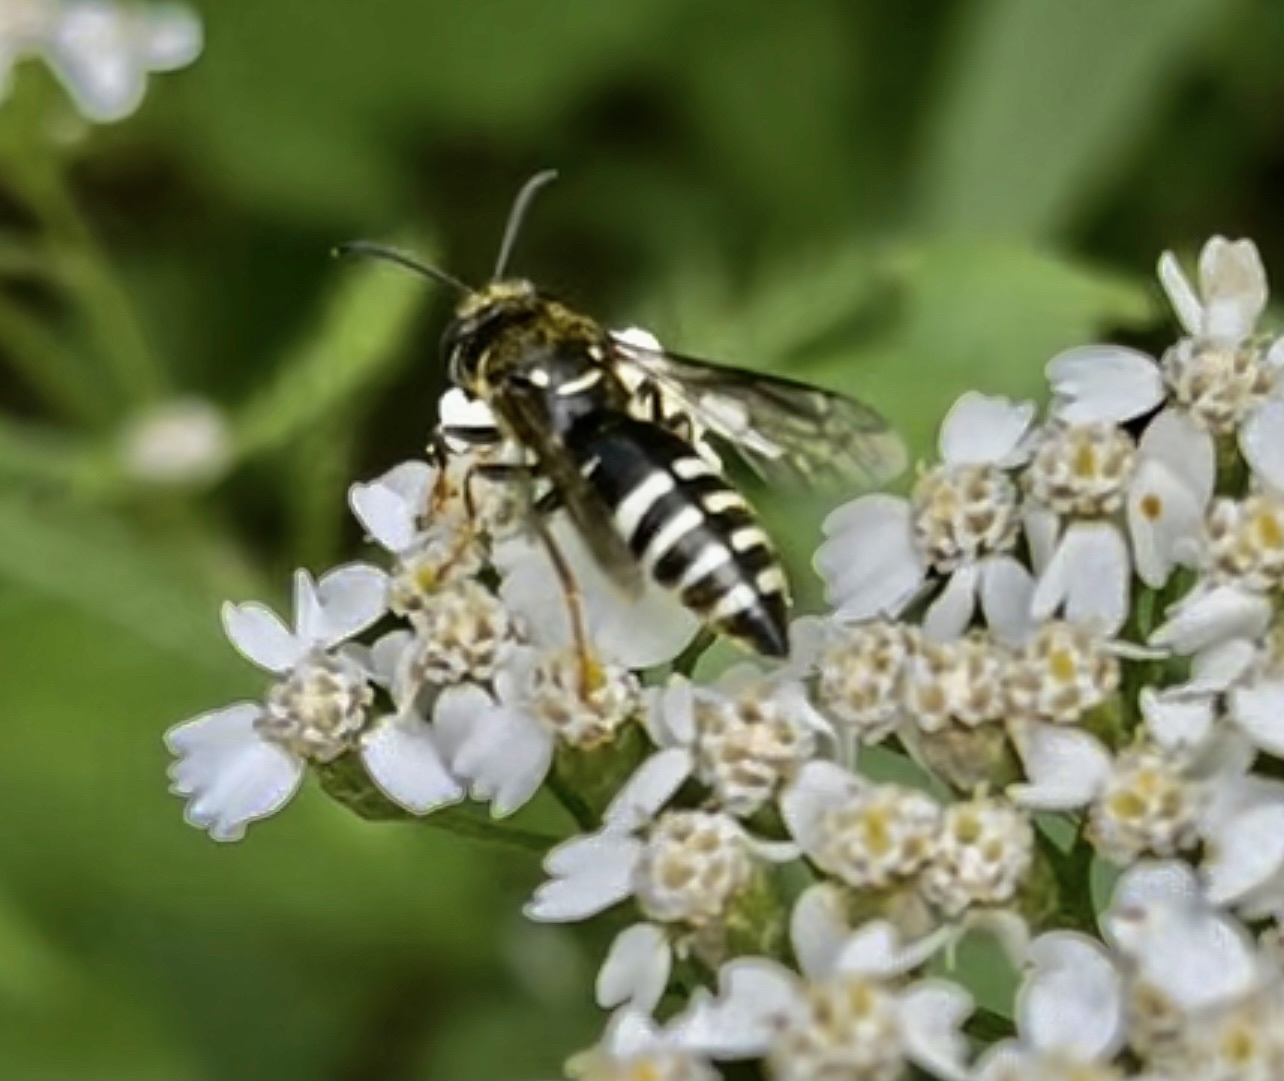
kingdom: Animalia
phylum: Arthropoda
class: Insecta
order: Hymenoptera
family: Crabronidae
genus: Bicyrtes
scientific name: Bicyrtes ventralis
